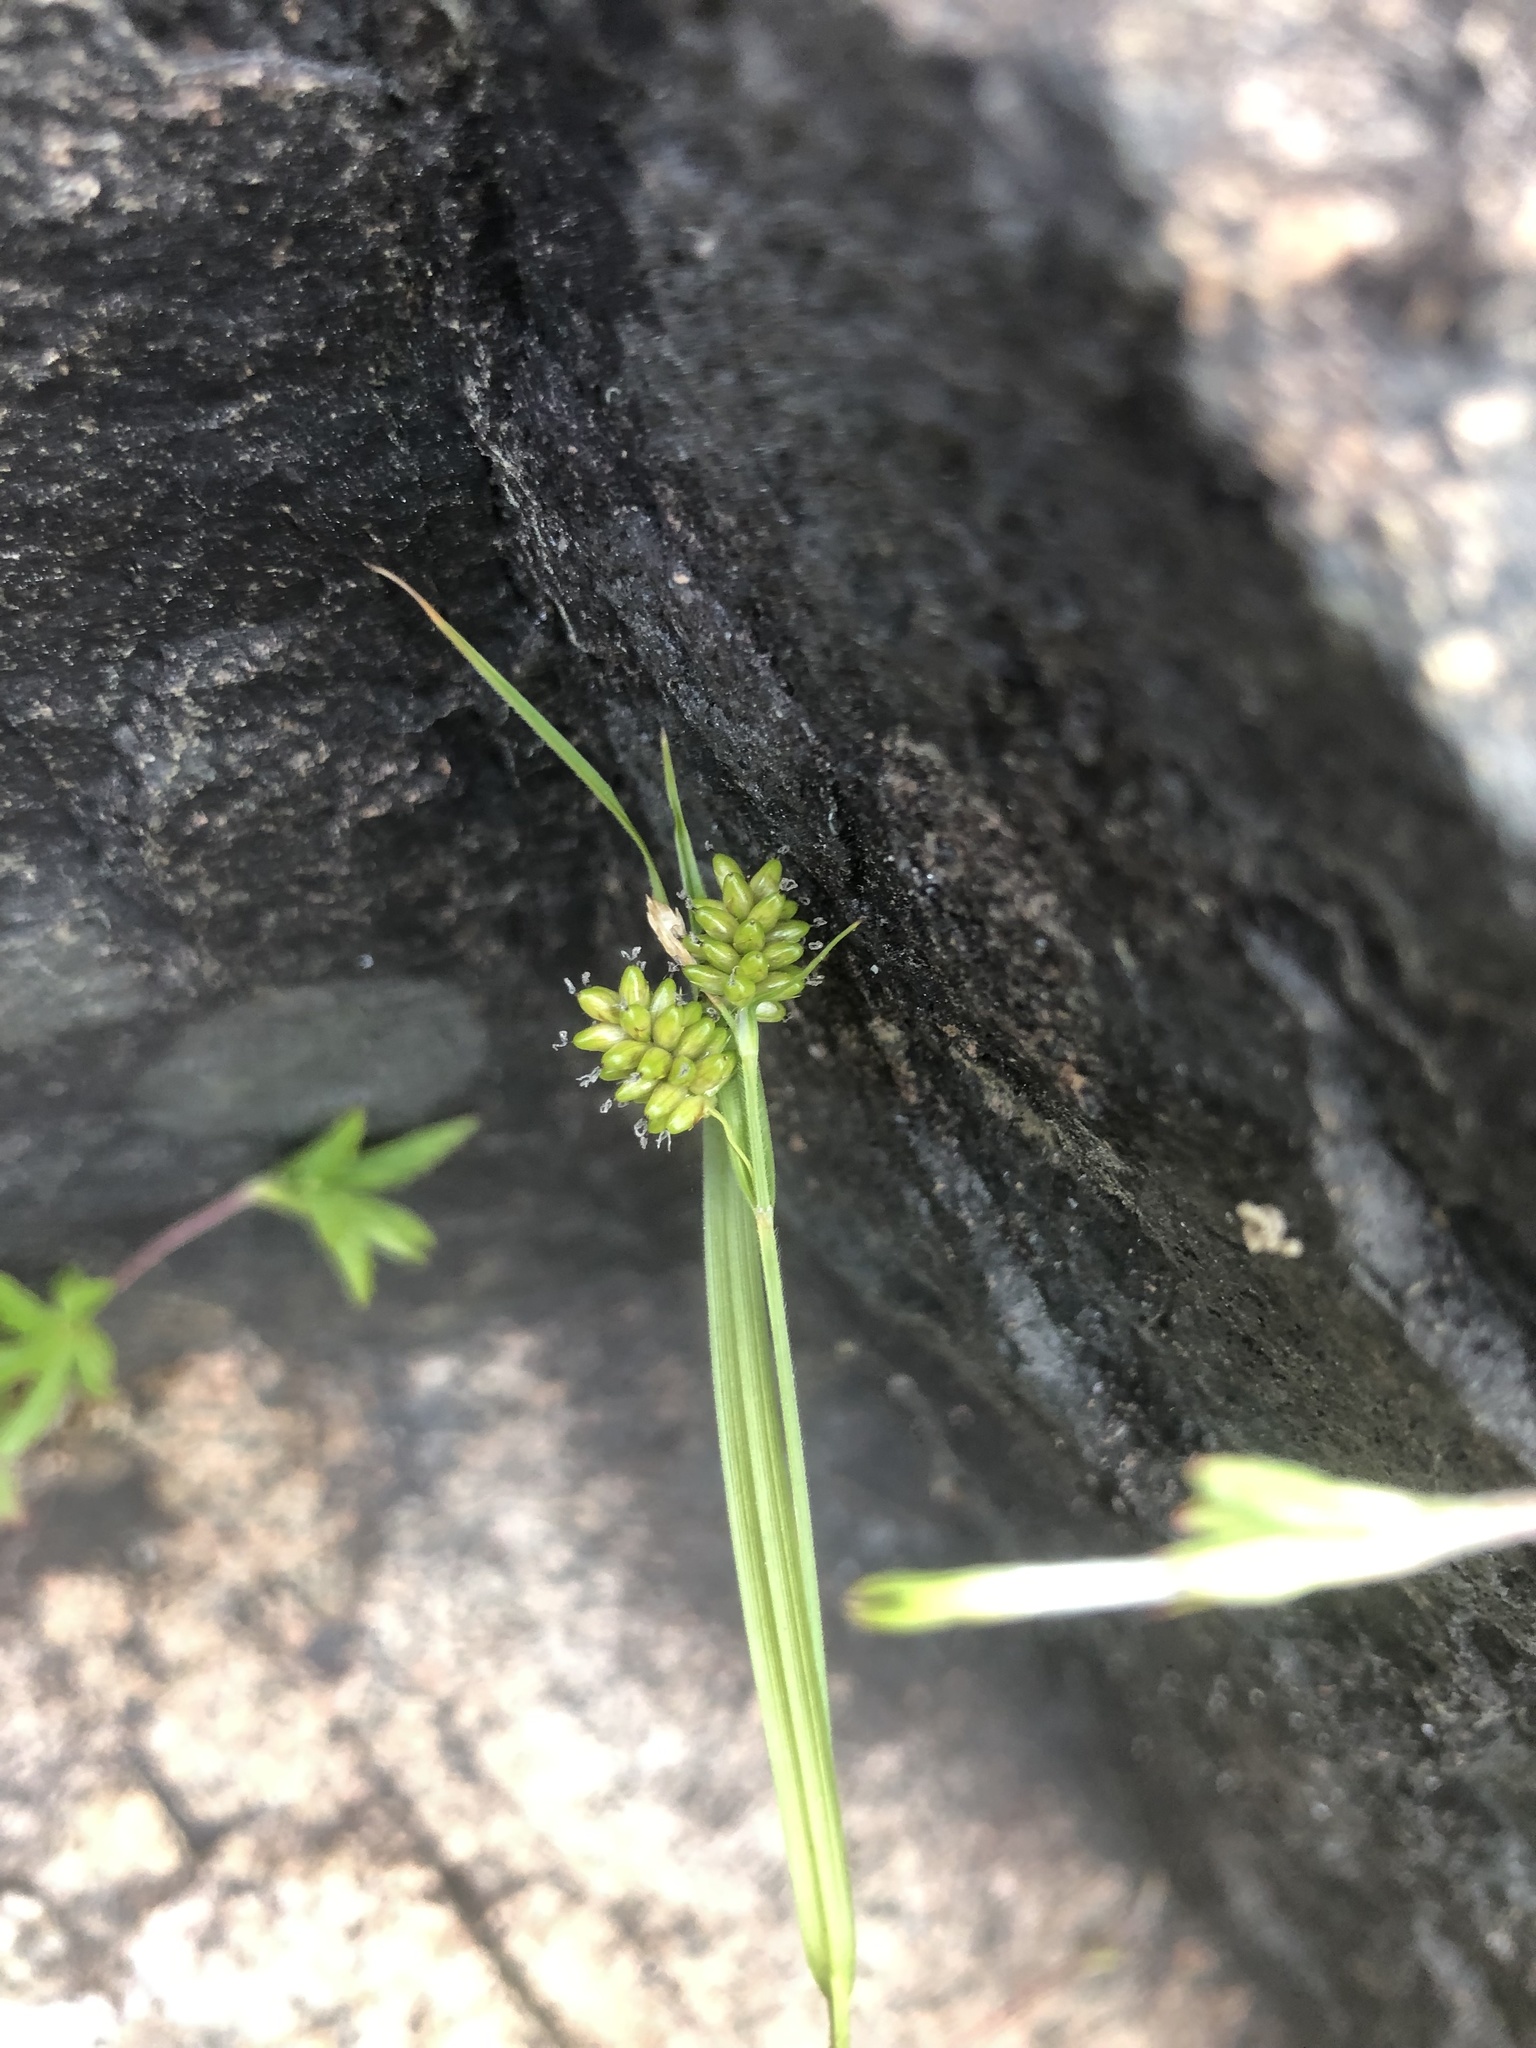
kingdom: Plantae
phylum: Tracheophyta
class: Liliopsida
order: Poales
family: Cyperaceae
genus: Carex
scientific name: Carex pallescens
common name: Pale sedge
